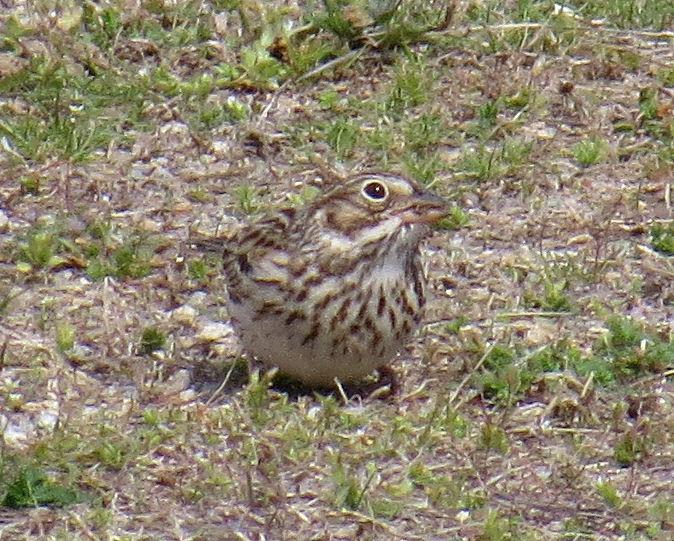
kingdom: Animalia
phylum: Chordata
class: Aves
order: Passeriformes
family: Passerellidae
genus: Pooecetes
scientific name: Pooecetes gramineus
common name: Vesper sparrow
